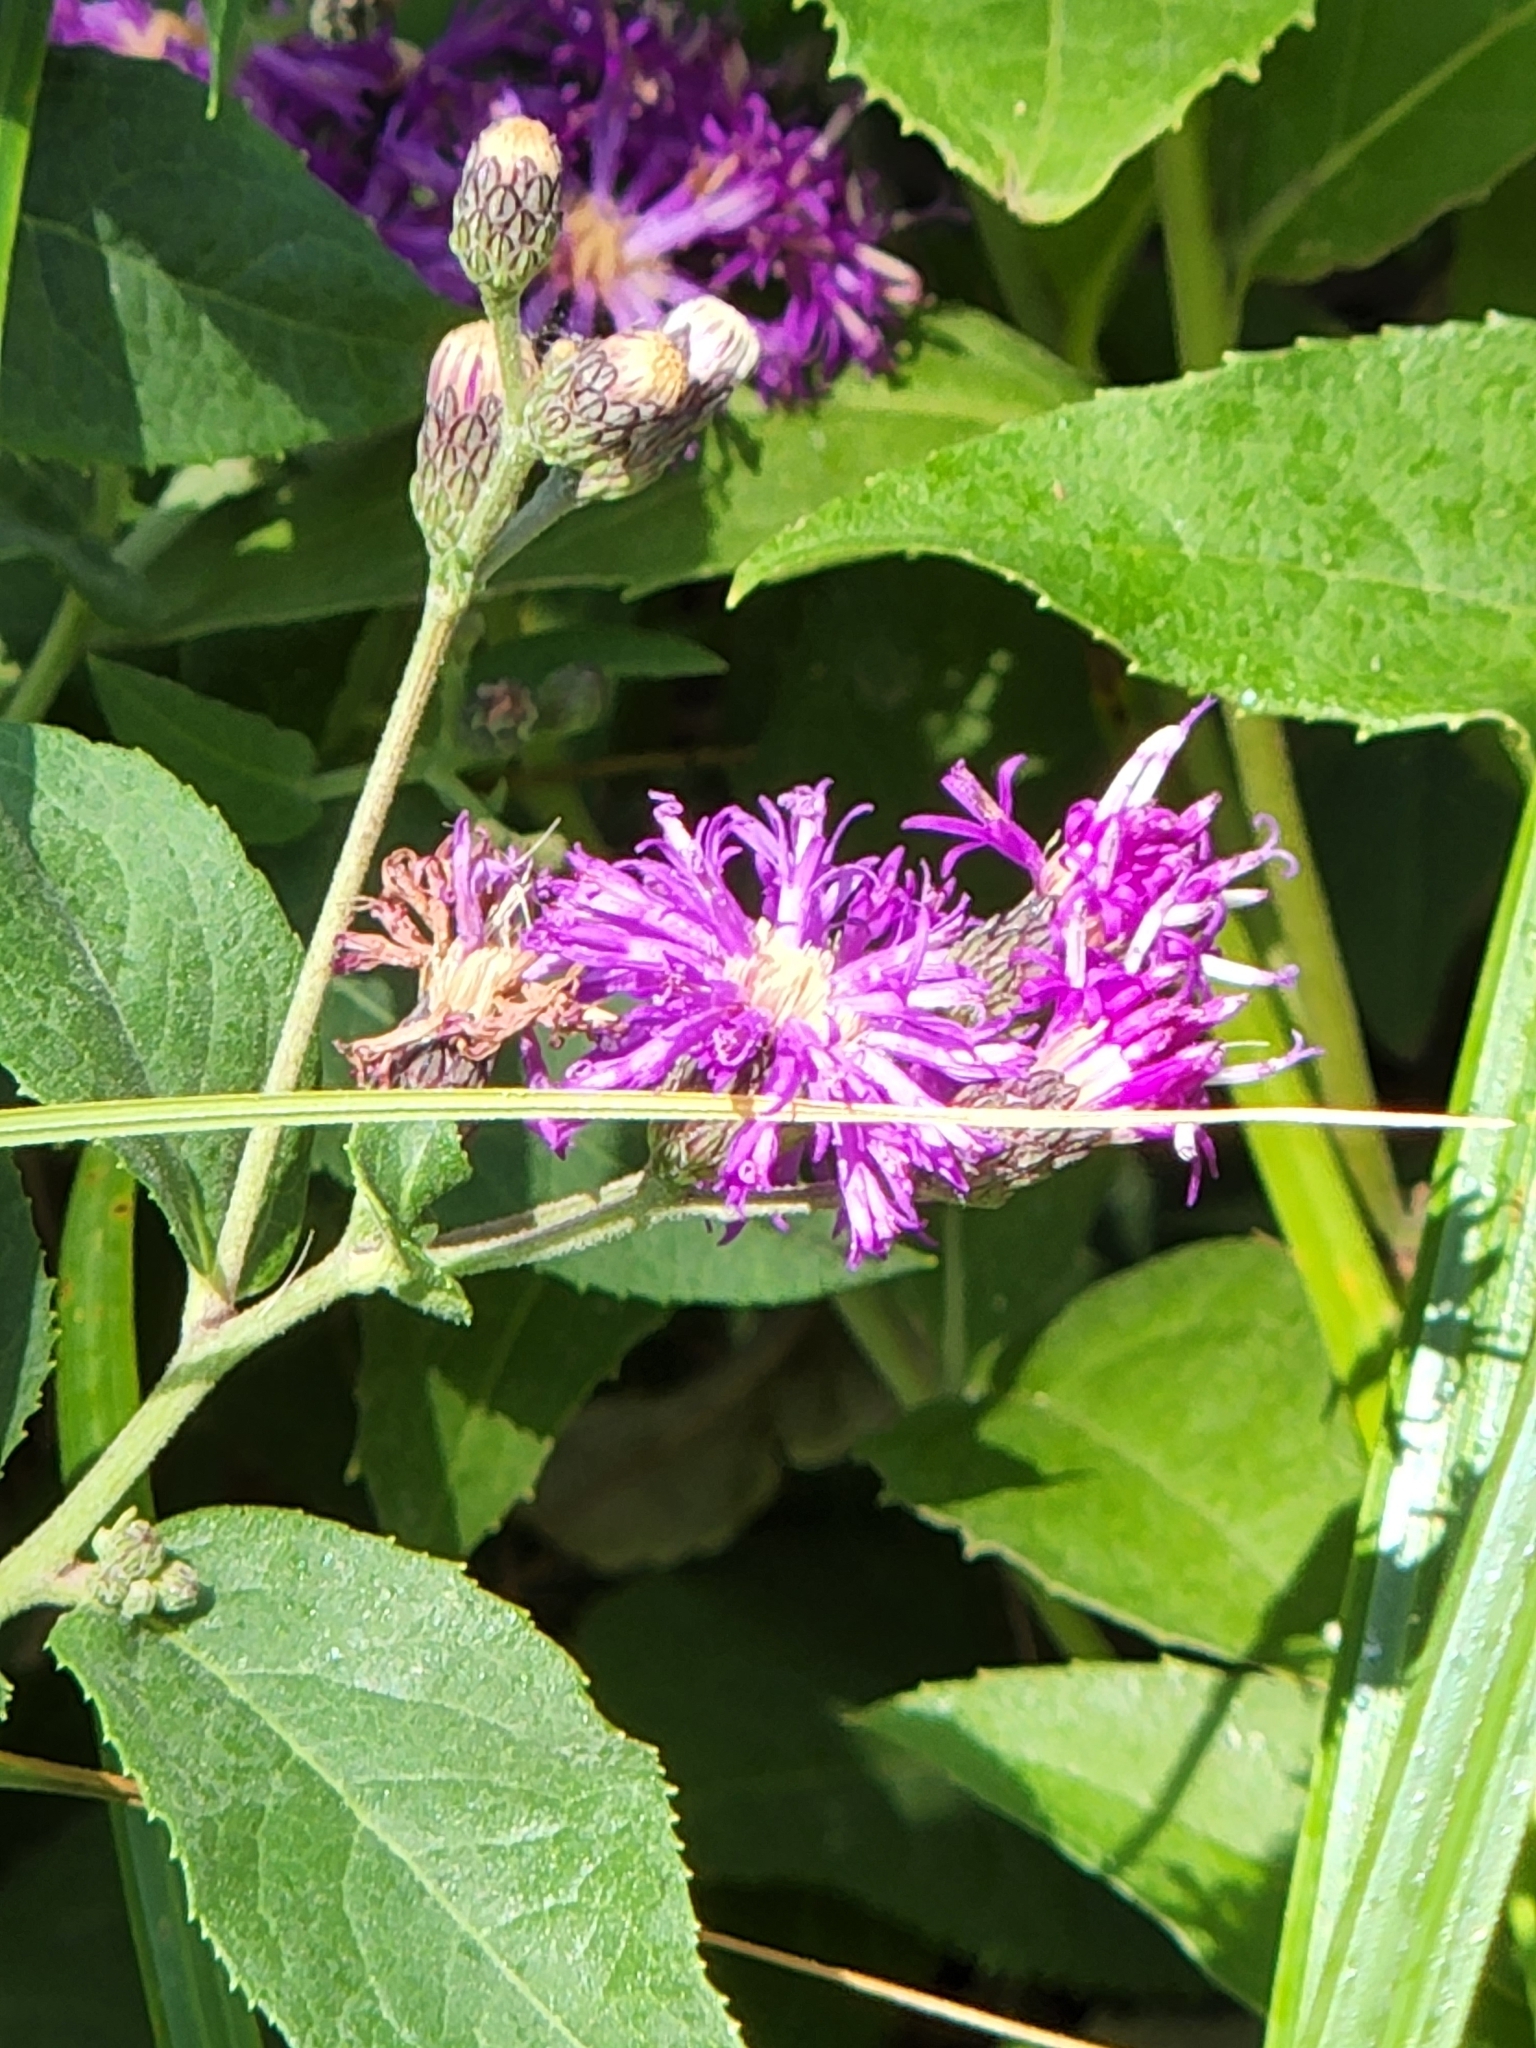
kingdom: Plantae
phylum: Tracheophyta
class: Magnoliopsida
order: Asterales
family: Asteraceae
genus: Vernonia
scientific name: Vernonia baldwinii
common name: Western ironweed
